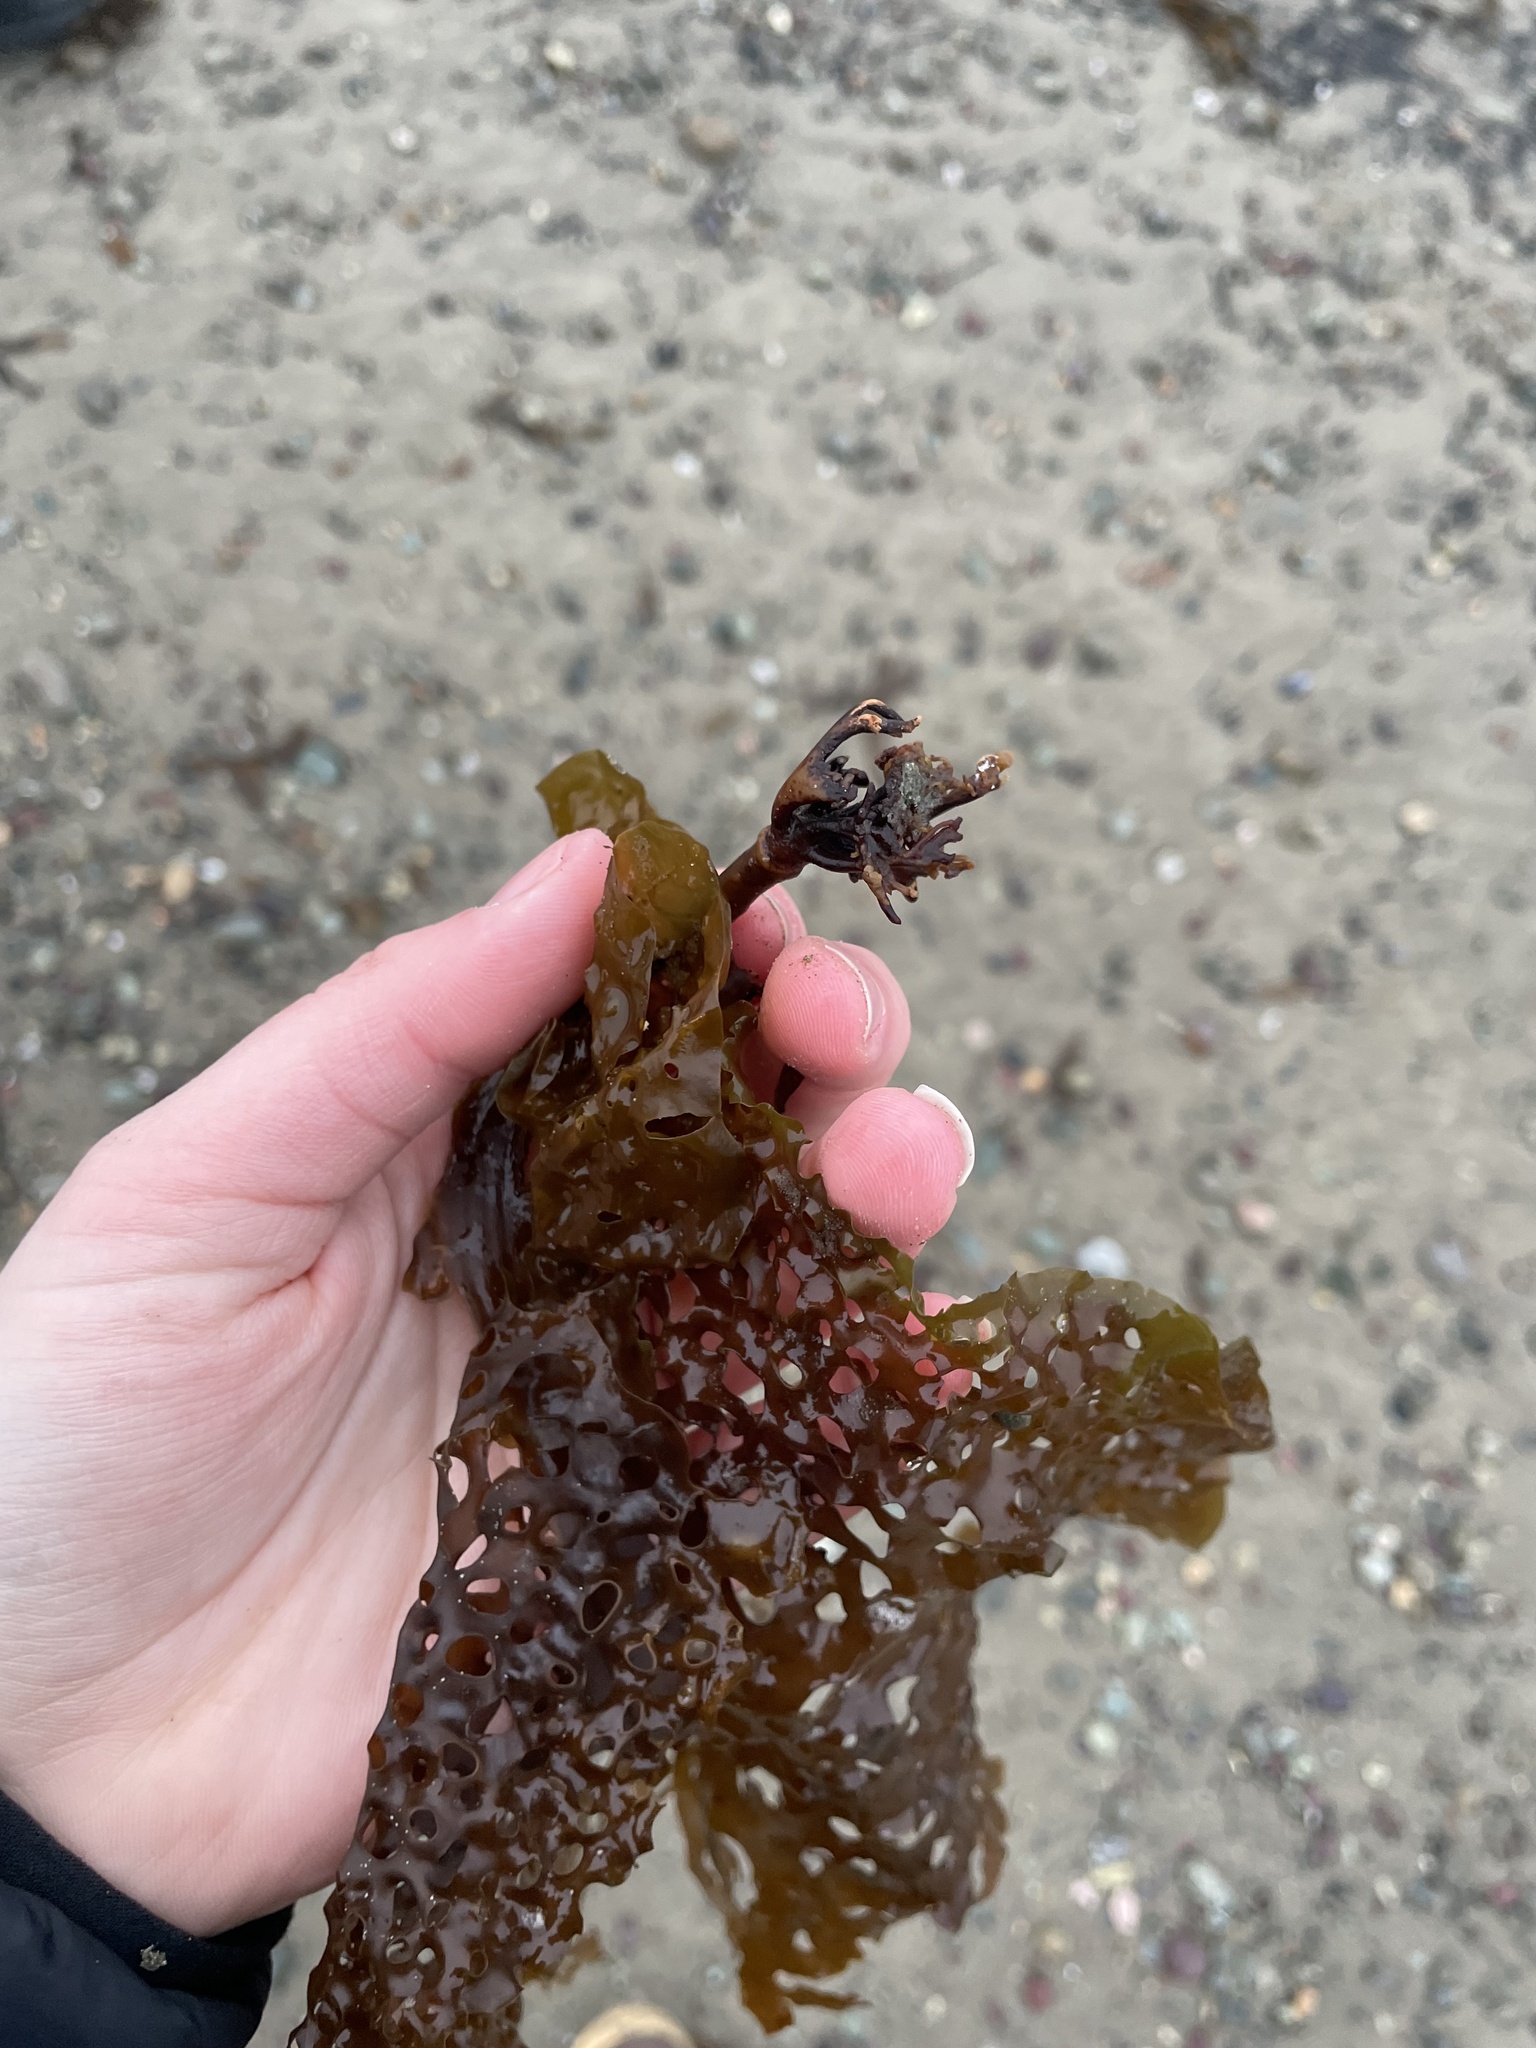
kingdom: Chromista
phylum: Ochrophyta
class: Phaeophyceae
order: Laminariales
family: Costariaceae
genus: Agarum
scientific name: Agarum clathratum
